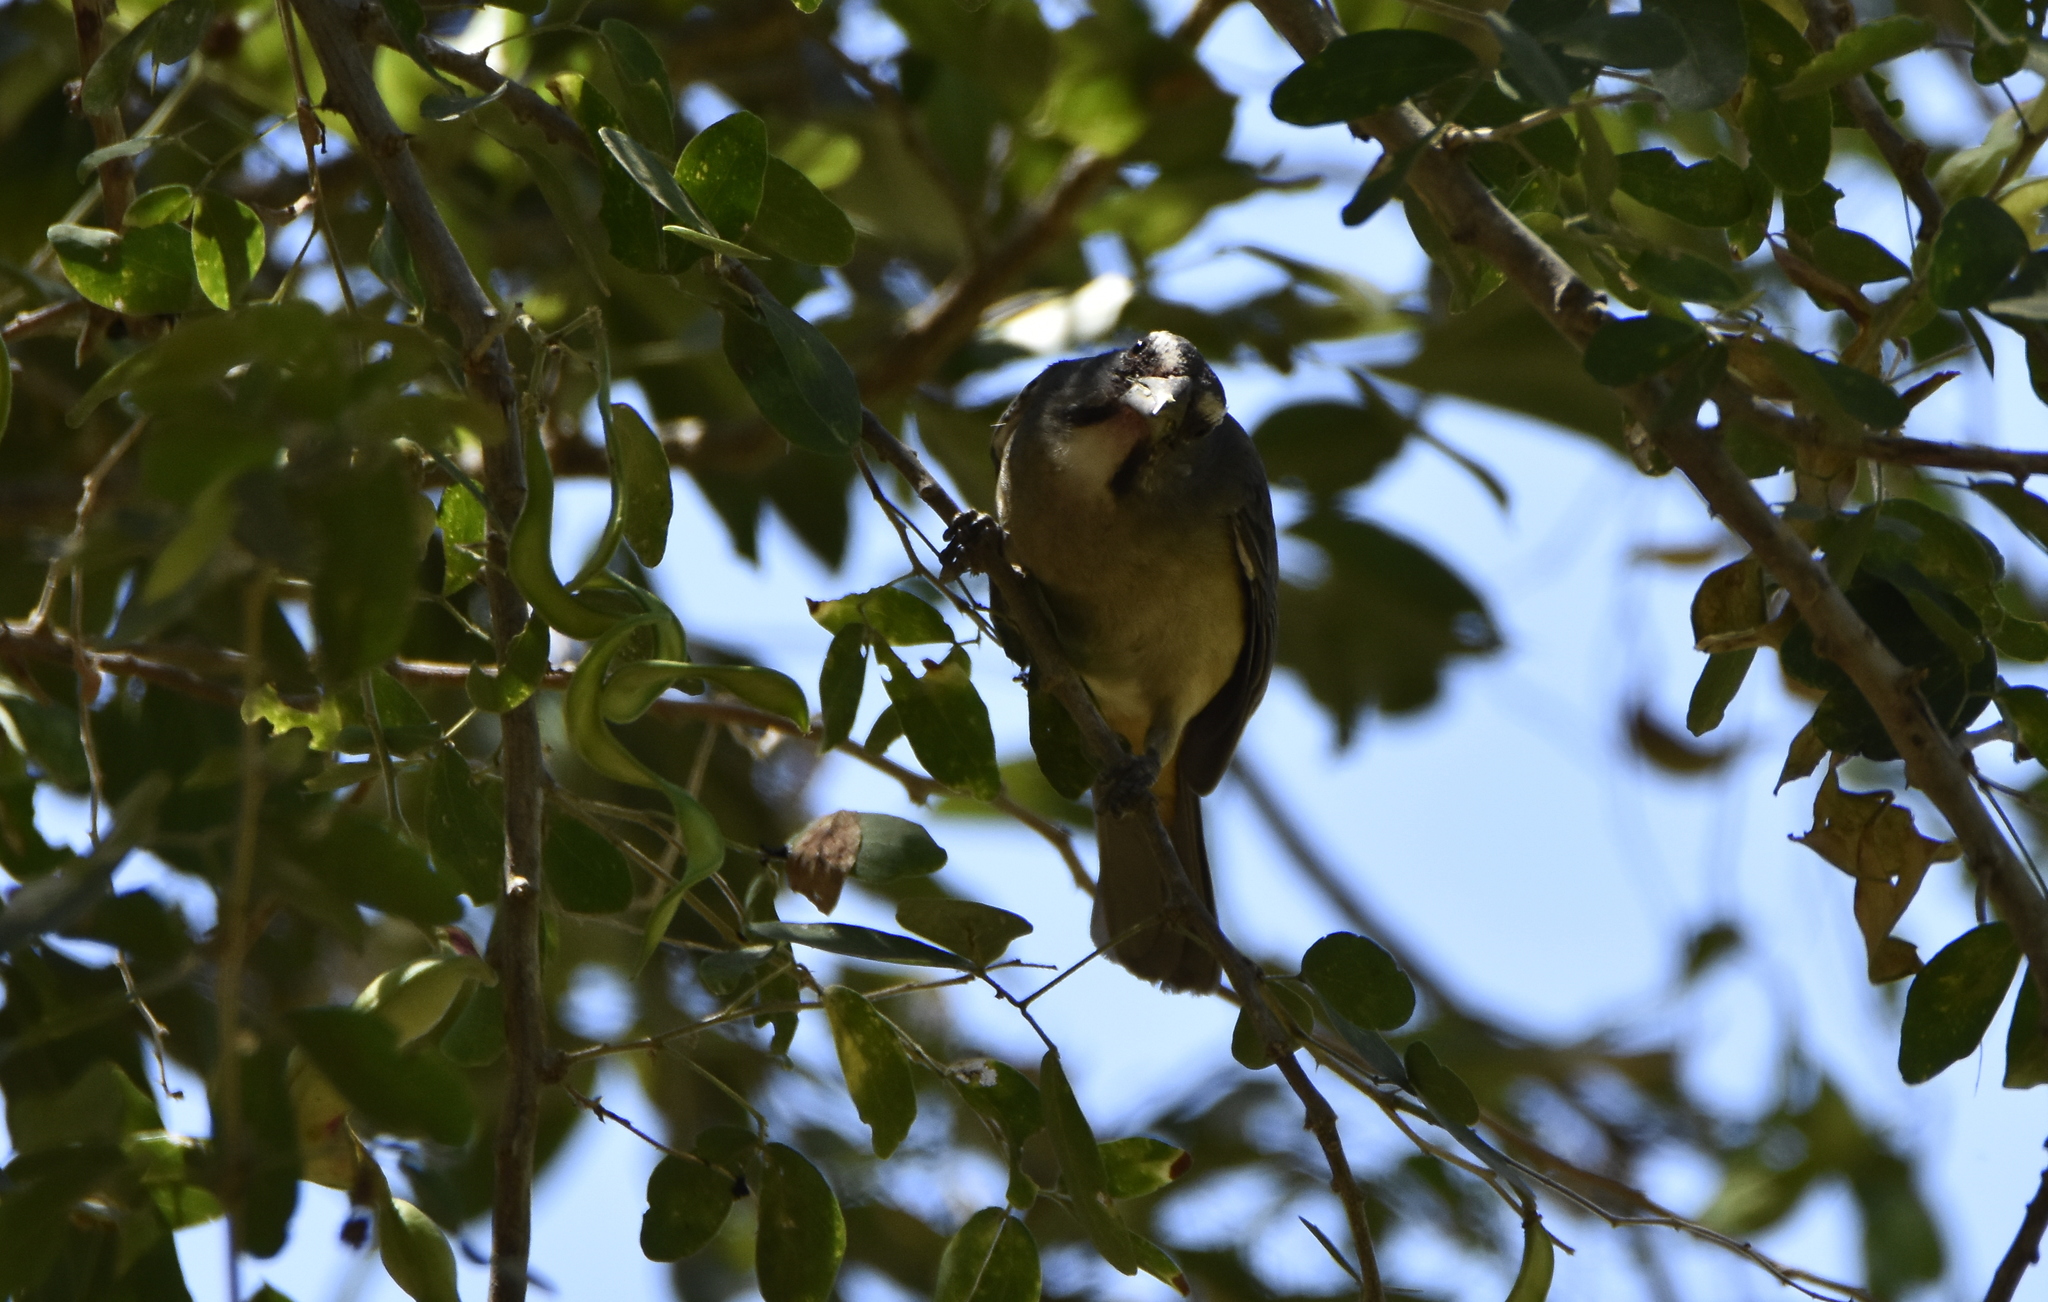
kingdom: Animalia
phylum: Chordata
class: Aves
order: Passeriformes
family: Thraupidae
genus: Saltator
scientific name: Saltator grandis
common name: Cinnamon-bellied saltator
